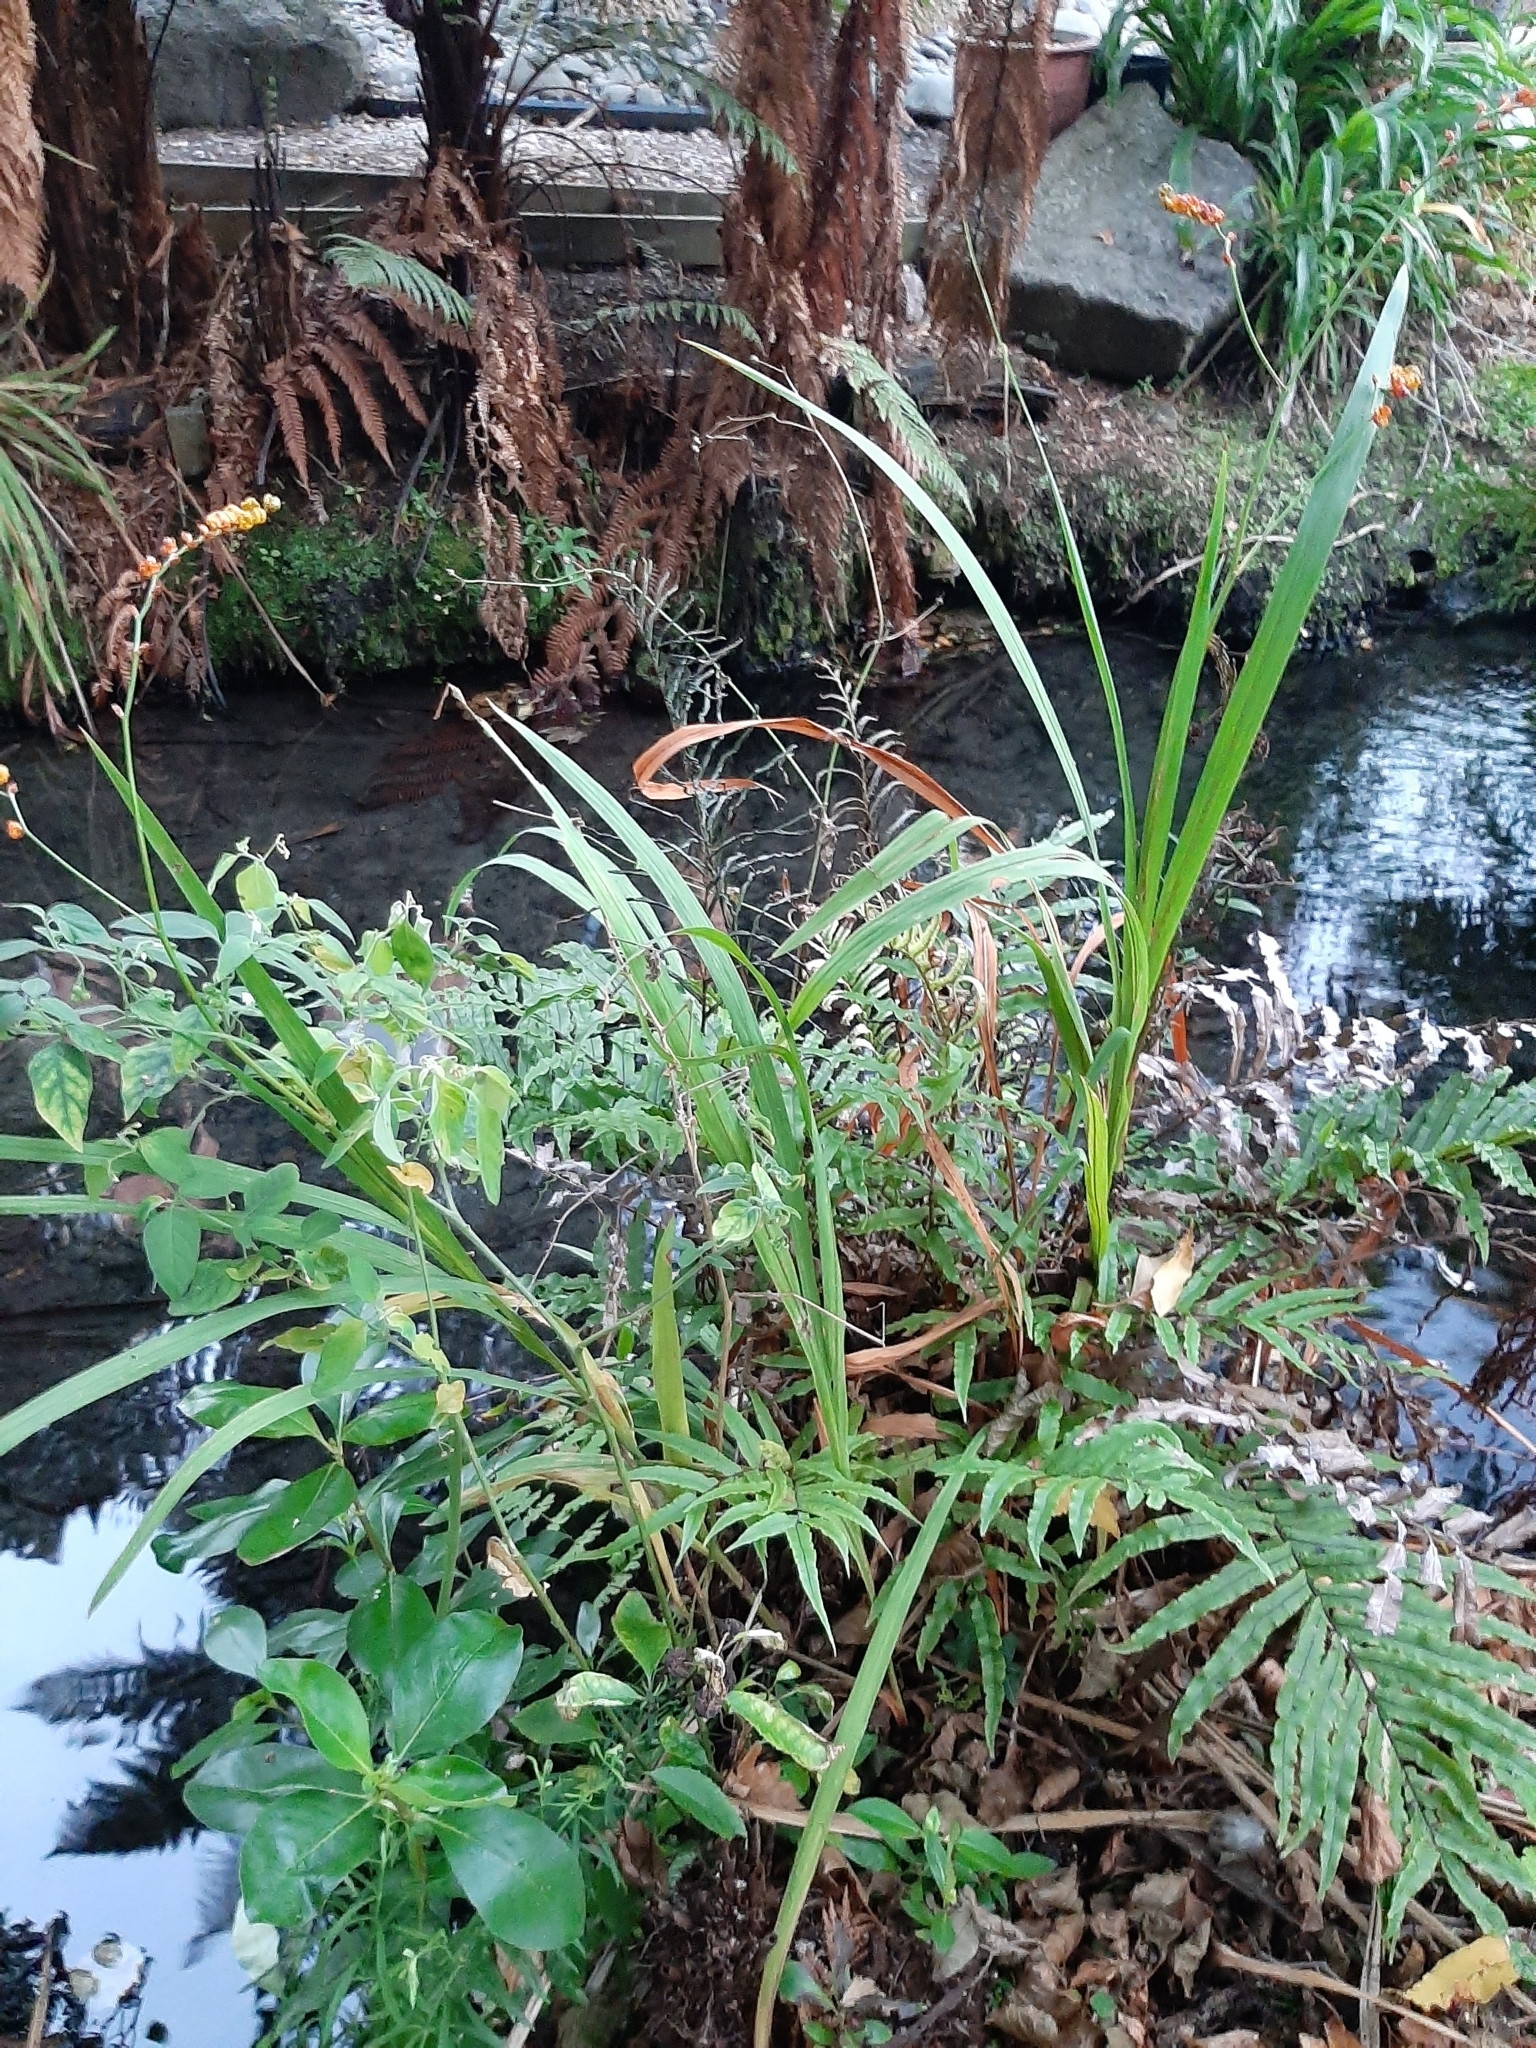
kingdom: Plantae
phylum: Tracheophyta
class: Liliopsida
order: Asparagales
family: Iridaceae
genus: Crocosmia
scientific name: Crocosmia crocosmiiflora
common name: Montbretia
